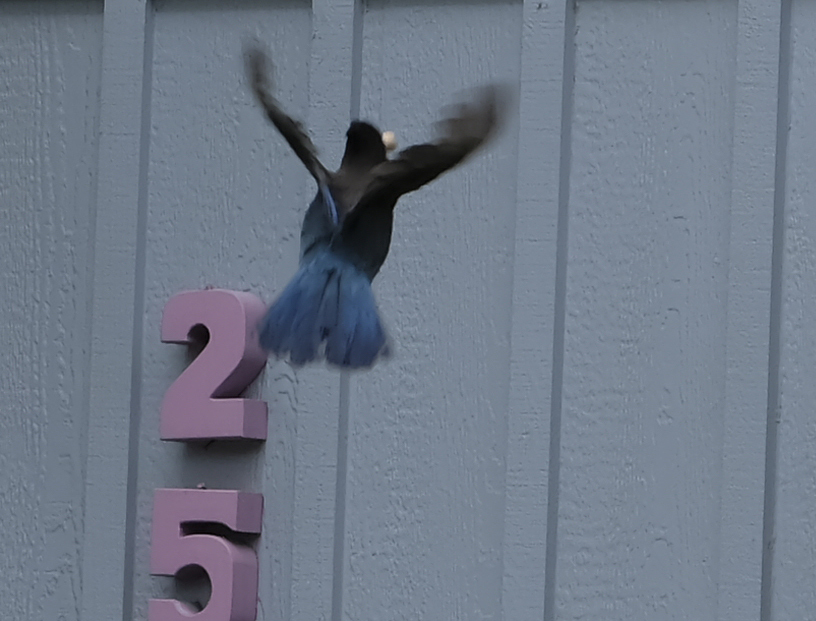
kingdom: Animalia
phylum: Chordata
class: Aves
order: Passeriformes
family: Corvidae
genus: Cyanocitta
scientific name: Cyanocitta stelleri
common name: Steller's jay
